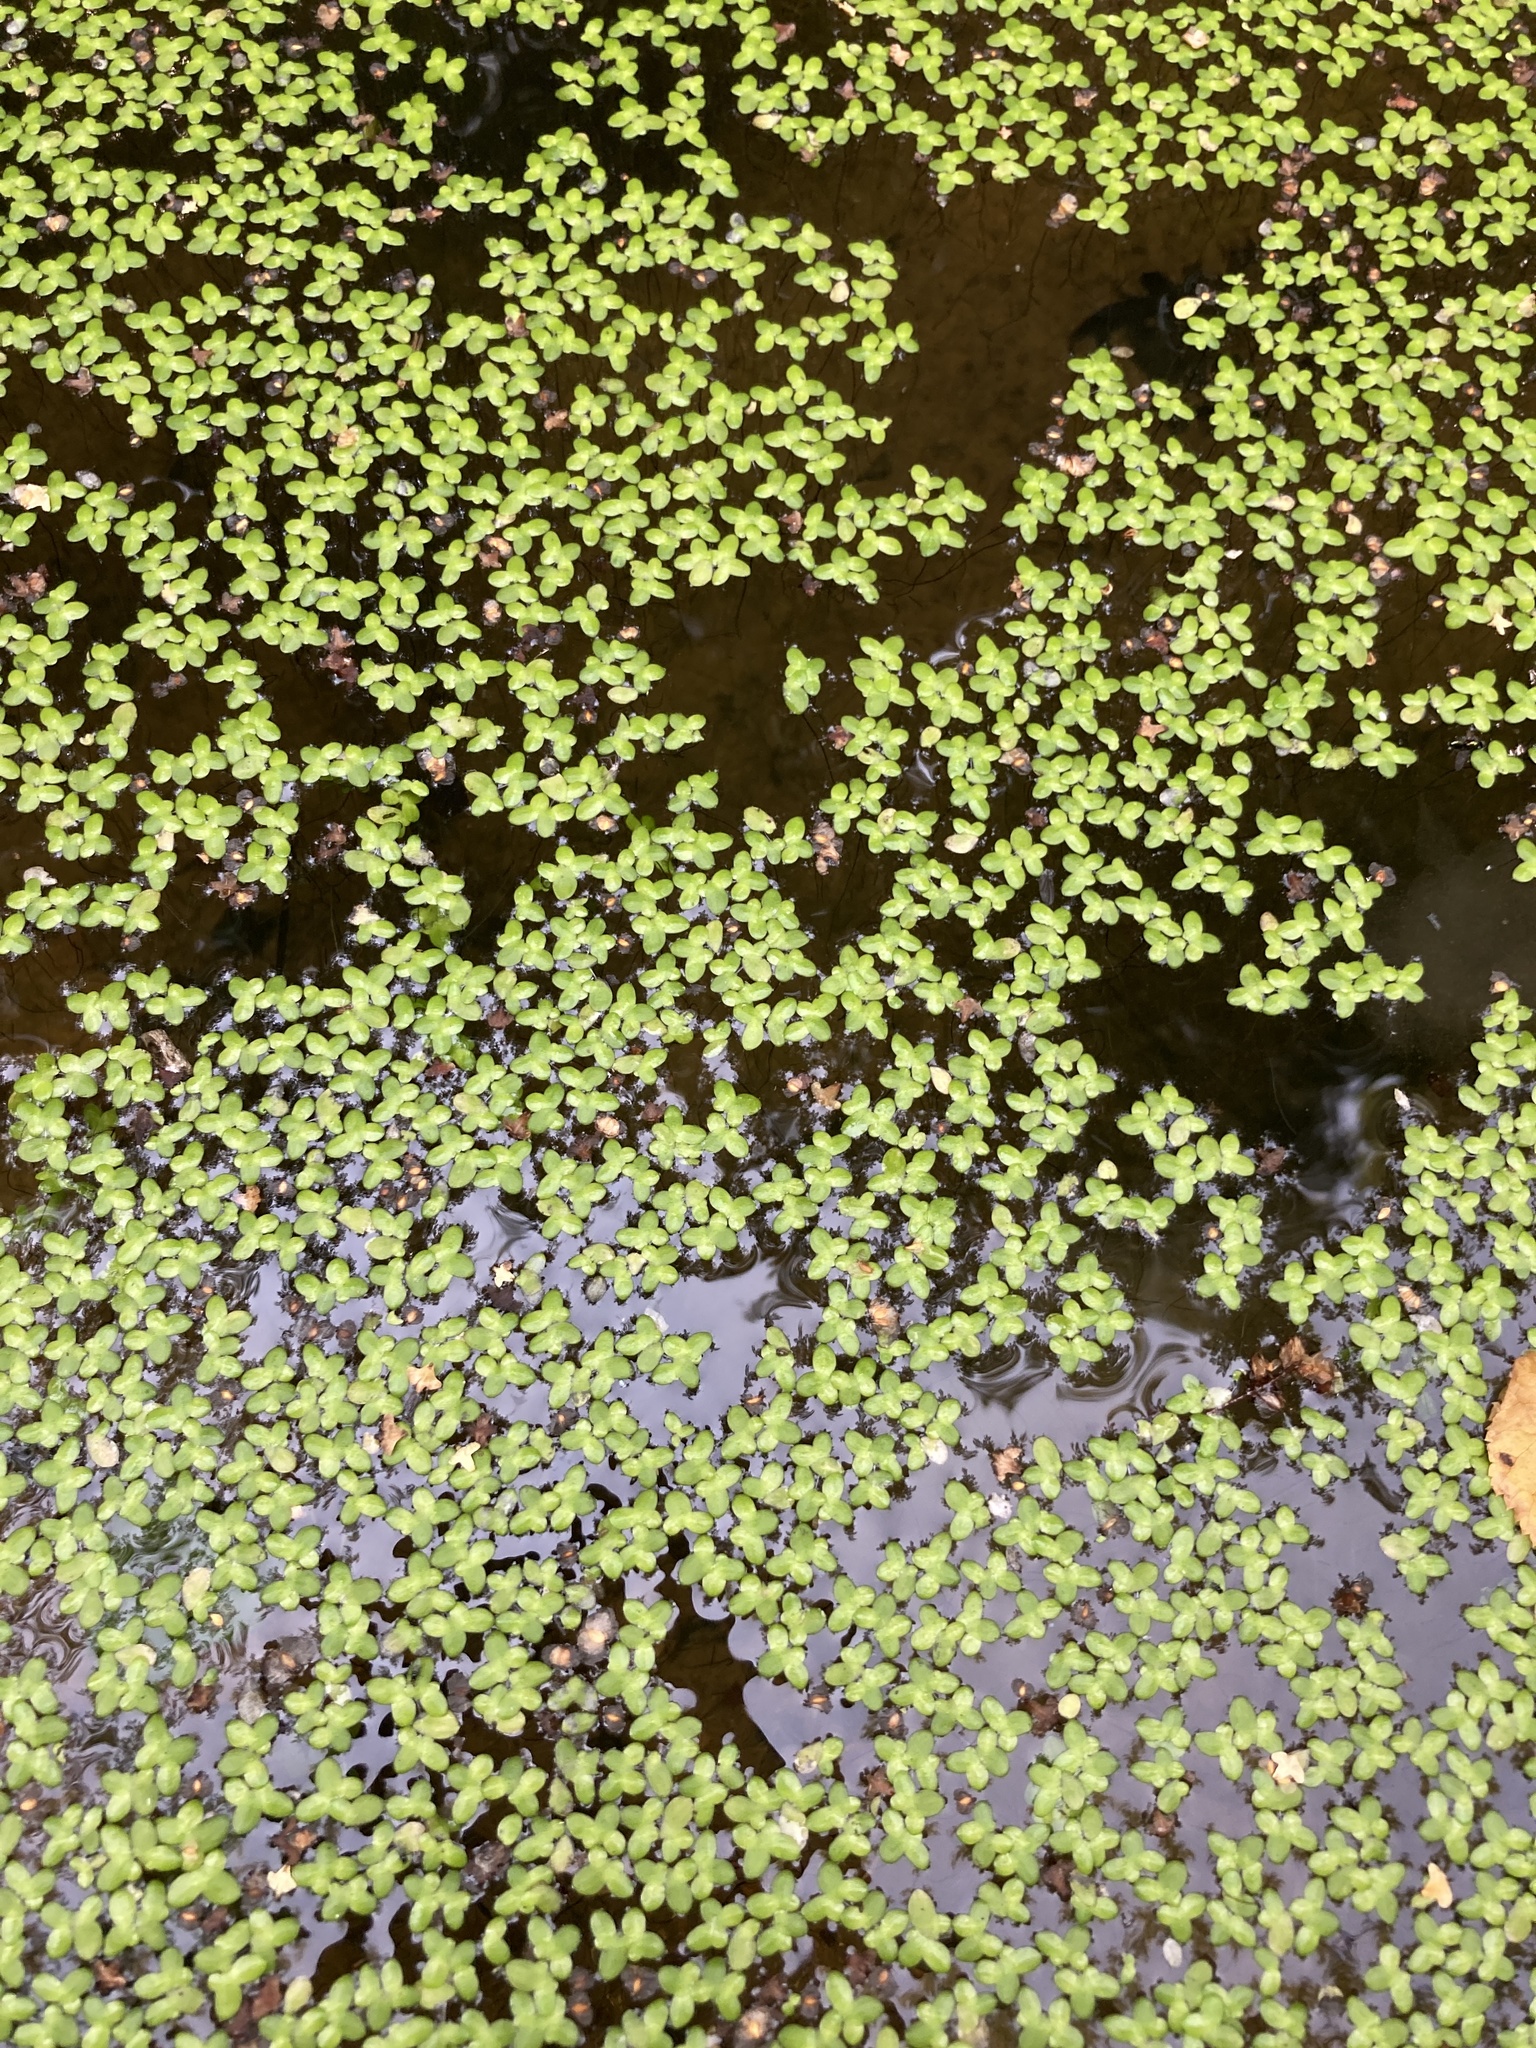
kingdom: Plantae
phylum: Tracheophyta
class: Liliopsida
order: Alismatales
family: Araceae
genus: Lemna
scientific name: Lemna
